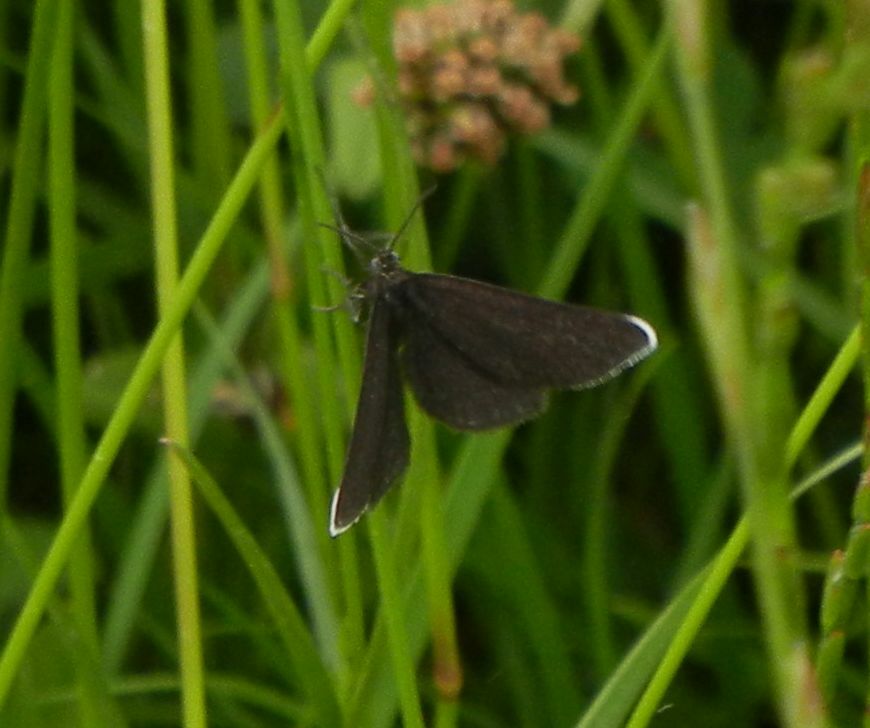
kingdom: Animalia
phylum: Arthropoda
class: Insecta
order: Lepidoptera
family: Geometridae
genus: Odezia
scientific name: Odezia atrata
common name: Chimney sweeper
